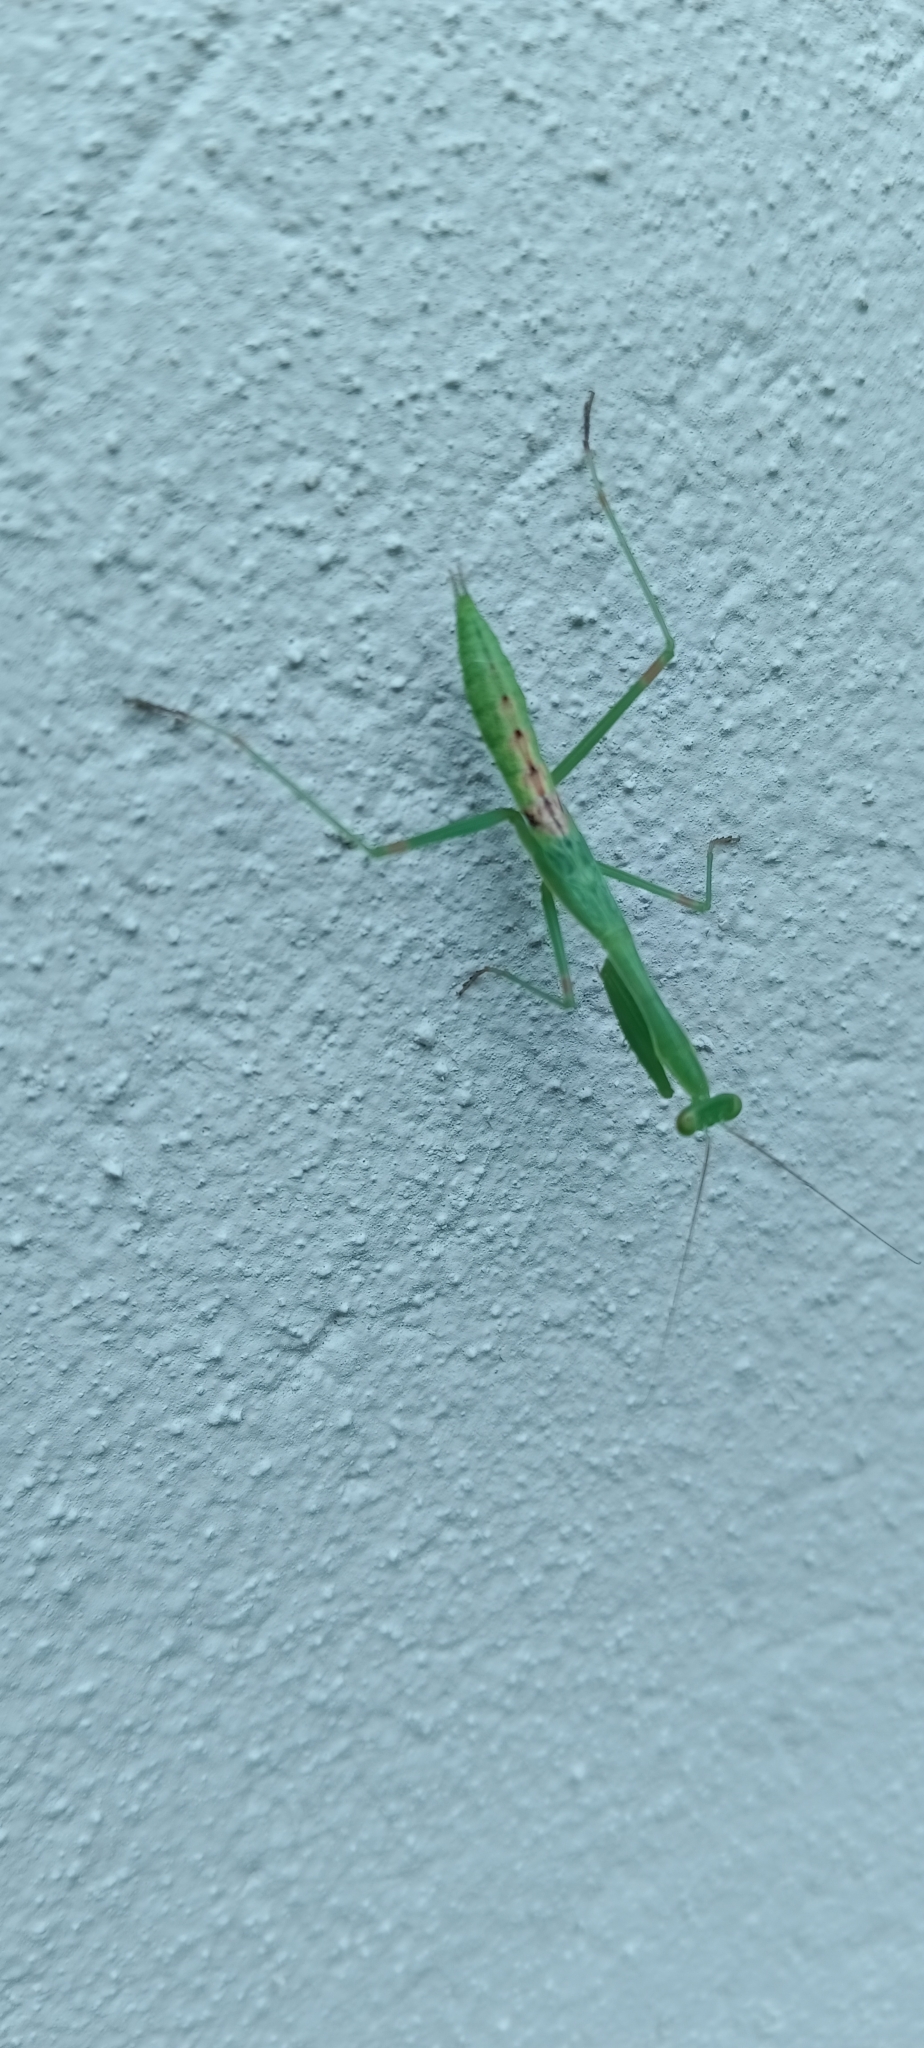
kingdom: Animalia
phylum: Arthropoda
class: Insecta
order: Mantodea
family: Miomantidae
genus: Miomantis
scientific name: Miomantis caffra
